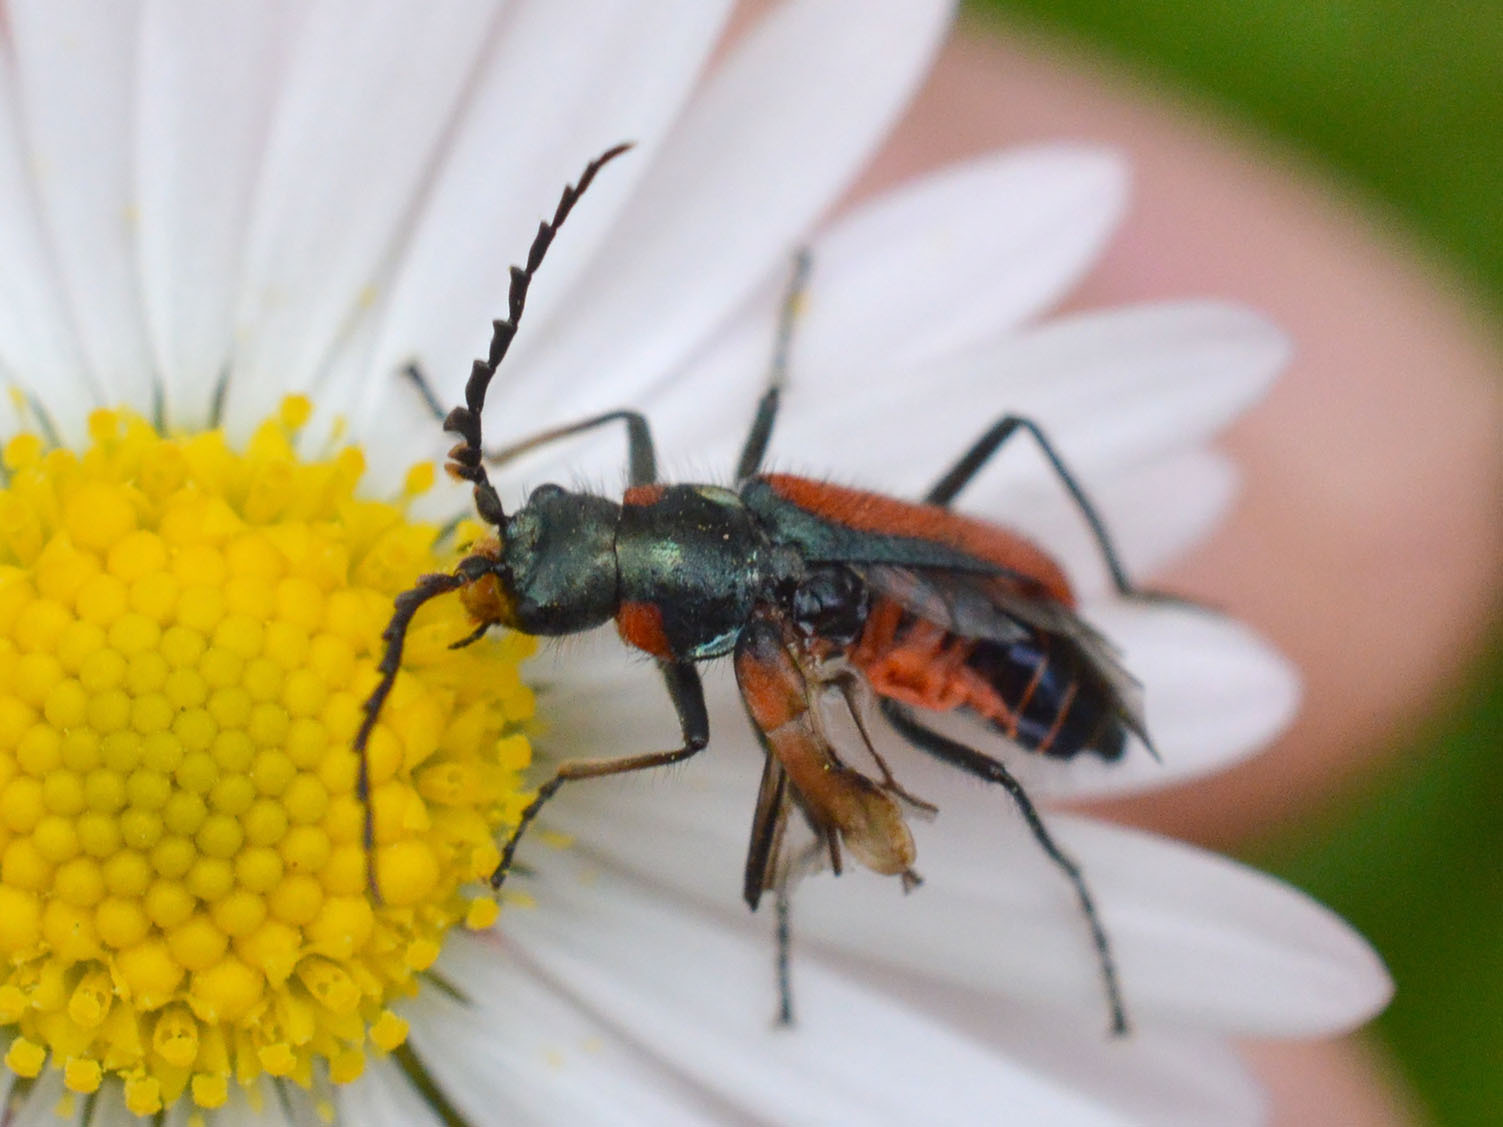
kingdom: Animalia
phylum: Arthropoda
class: Insecta
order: Coleoptera
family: Melyridae
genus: Malachius
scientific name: Malachius
